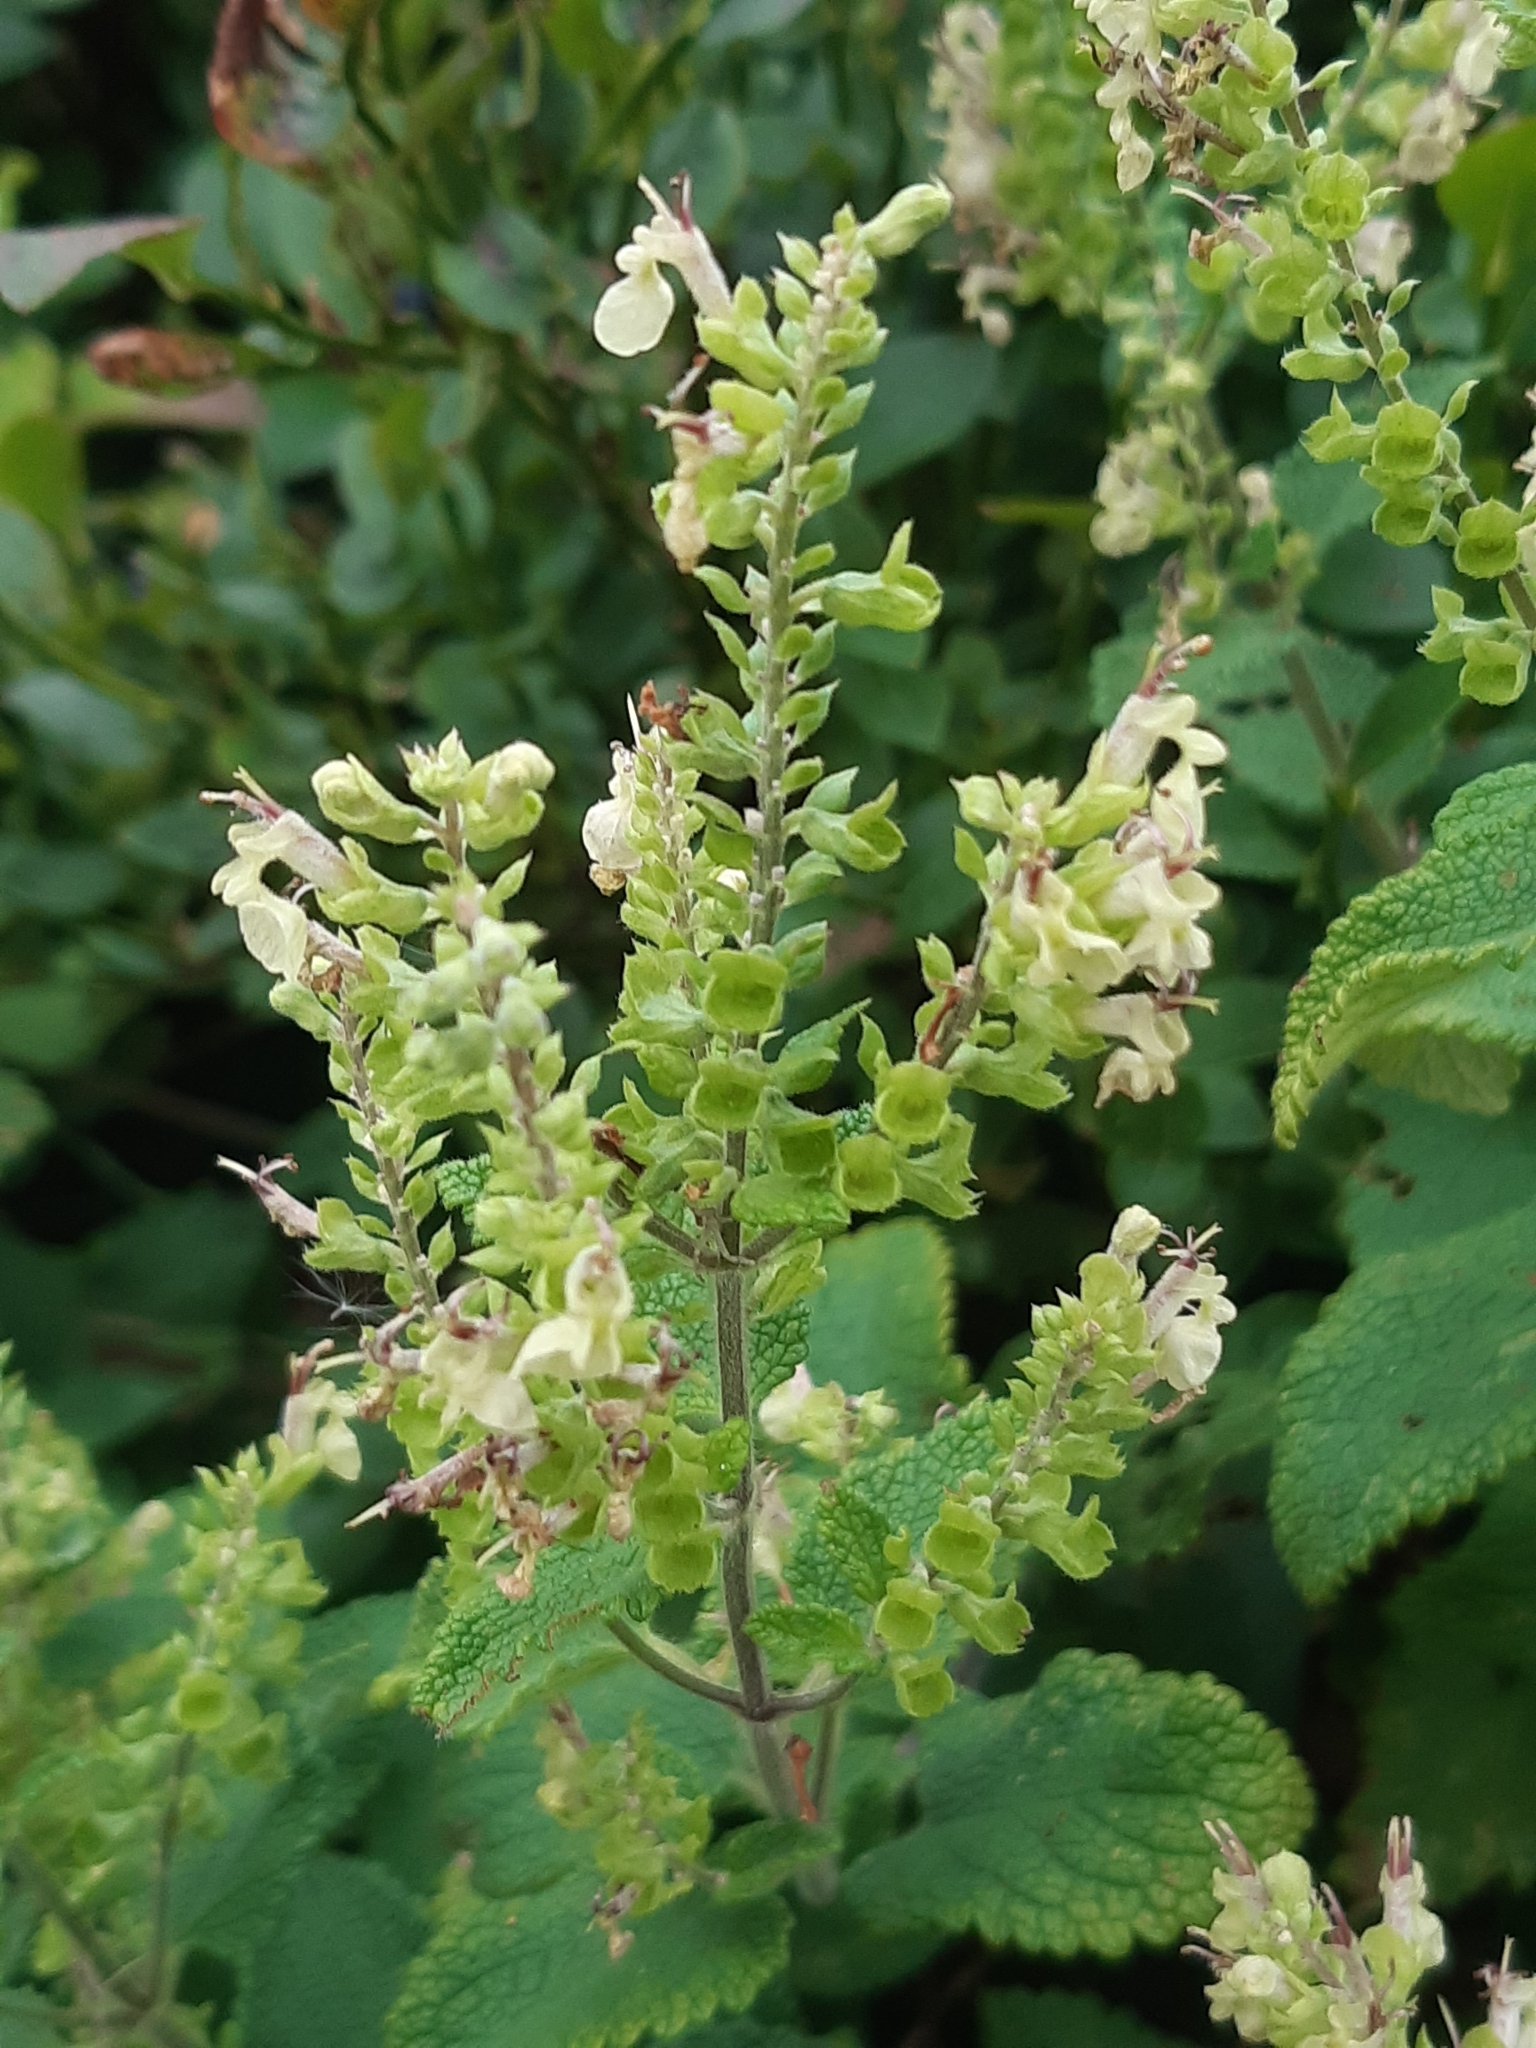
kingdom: Plantae
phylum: Tracheophyta
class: Magnoliopsida
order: Lamiales
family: Lamiaceae
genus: Teucrium
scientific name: Teucrium scorodonia
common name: Woodland germander
